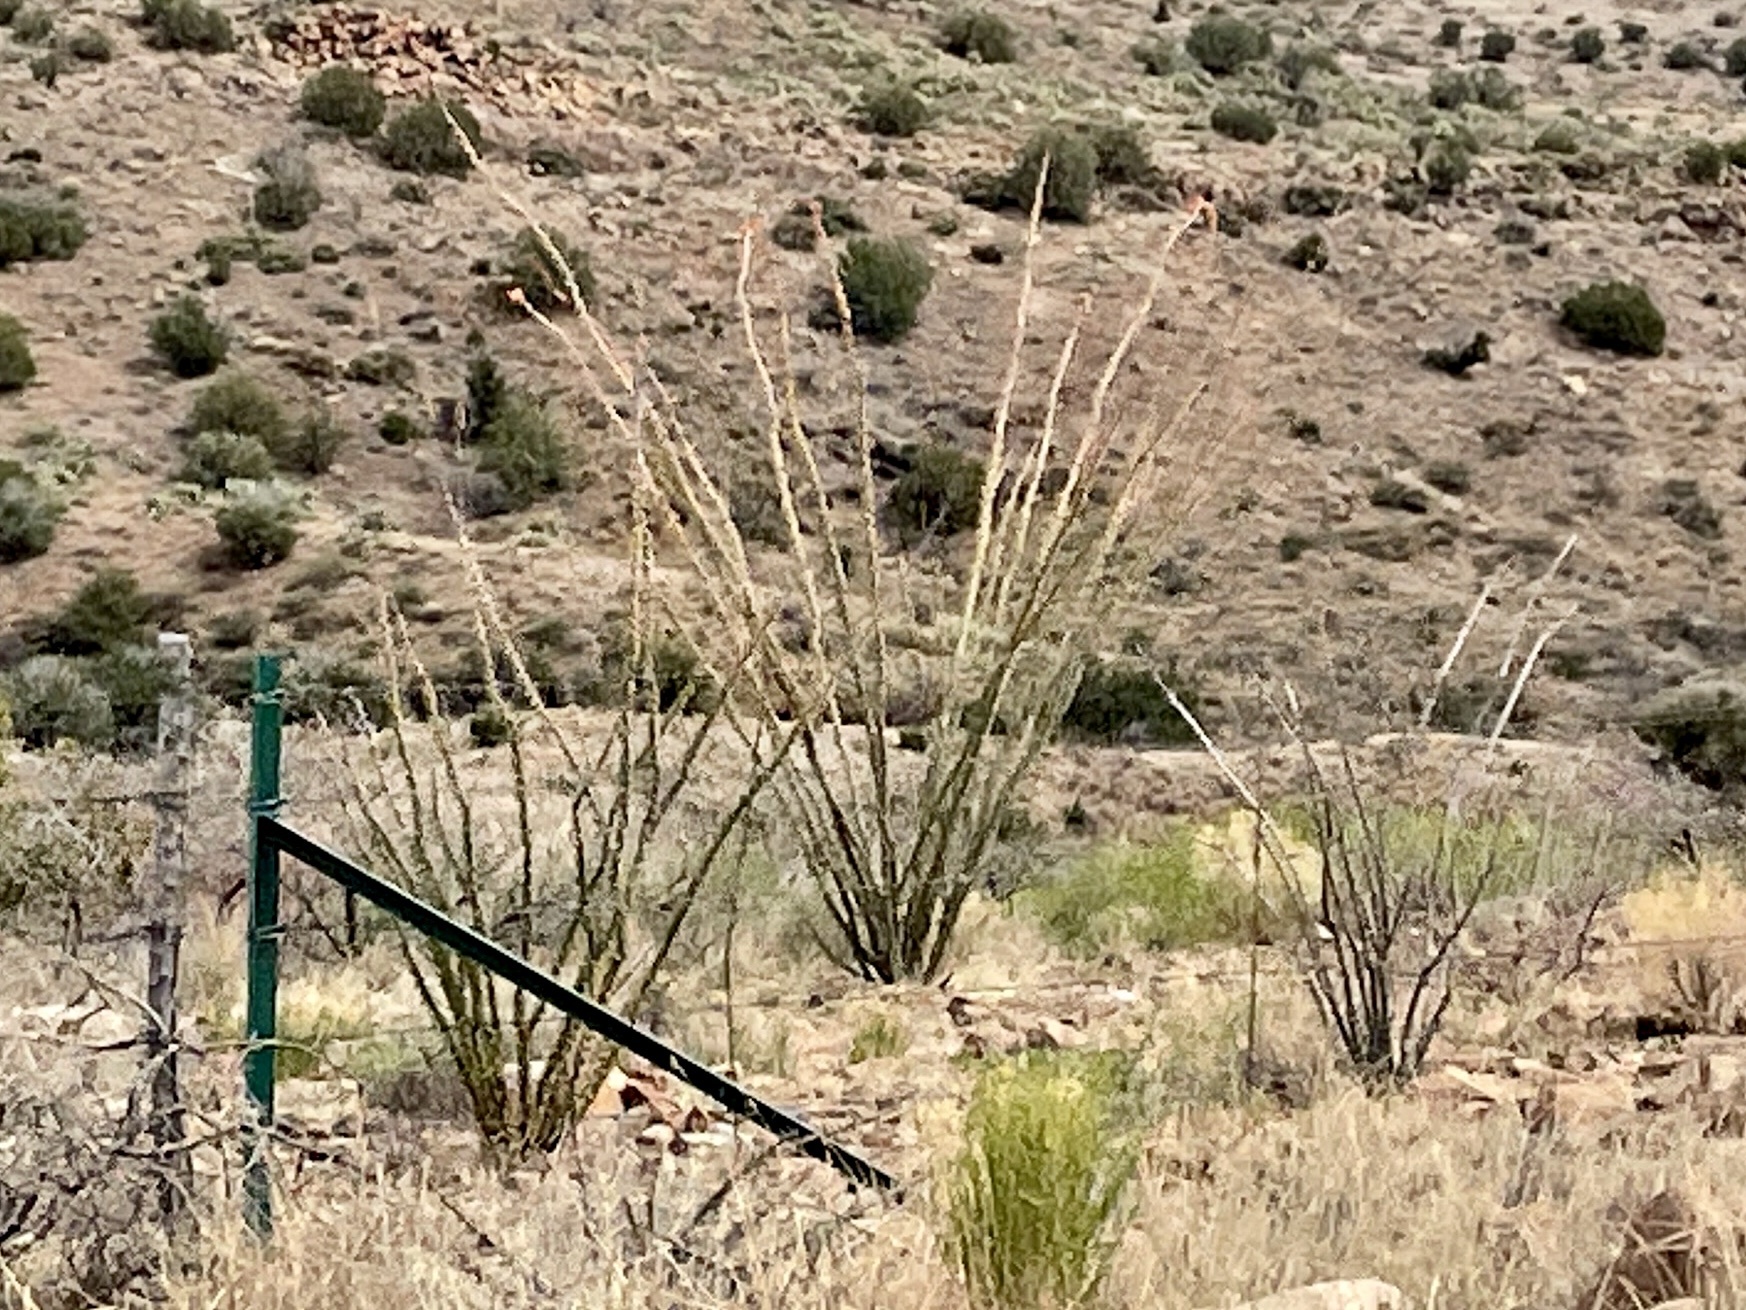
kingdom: Plantae
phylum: Tracheophyta
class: Magnoliopsida
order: Ericales
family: Fouquieriaceae
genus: Fouquieria
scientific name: Fouquieria splendens
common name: Vine-cactus
